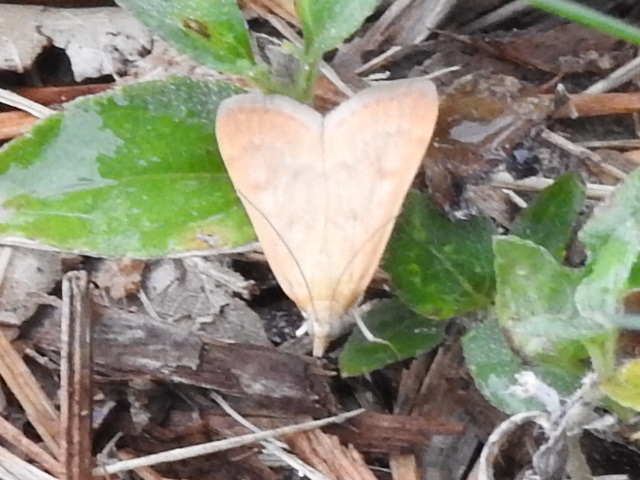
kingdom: Animalia
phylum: Arthropoda
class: Insecta
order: Lepidoptera
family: Crambidae
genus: Achyra
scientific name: Achyra rantalis
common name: Garden webworm
